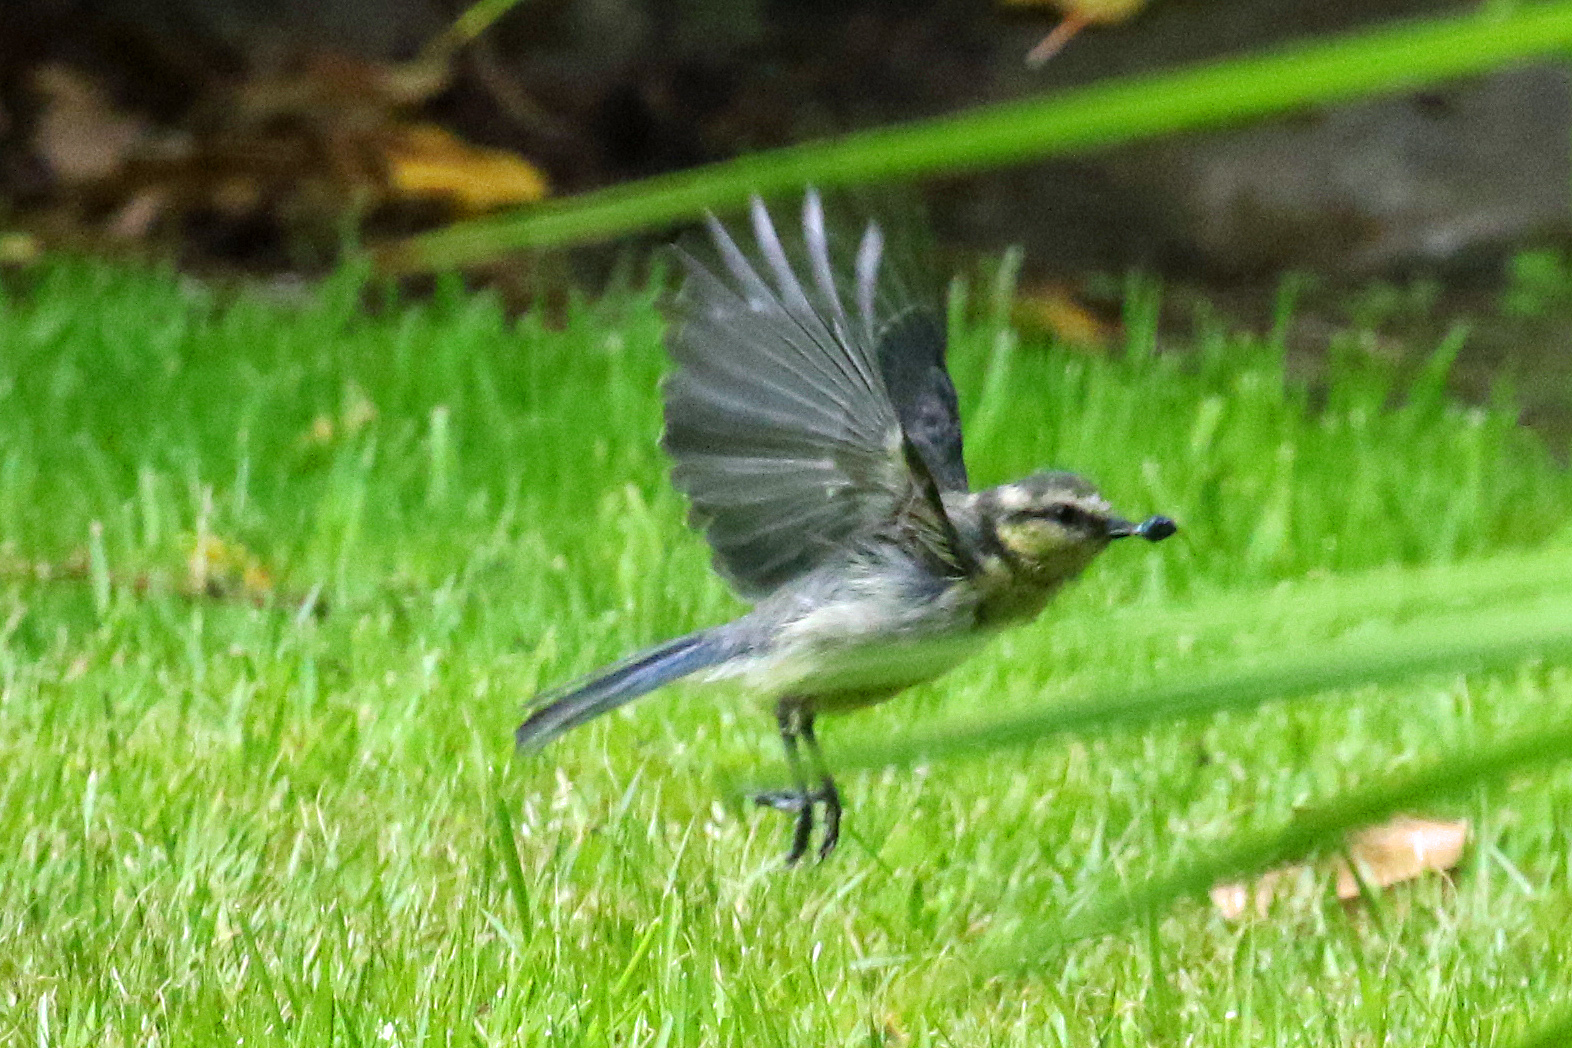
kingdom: Animalia
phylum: Chordata
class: Aves
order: Passeriformes
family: Paridae
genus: Cyanistes
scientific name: Cyanistes caeruleus
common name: Eurasian blue tit
